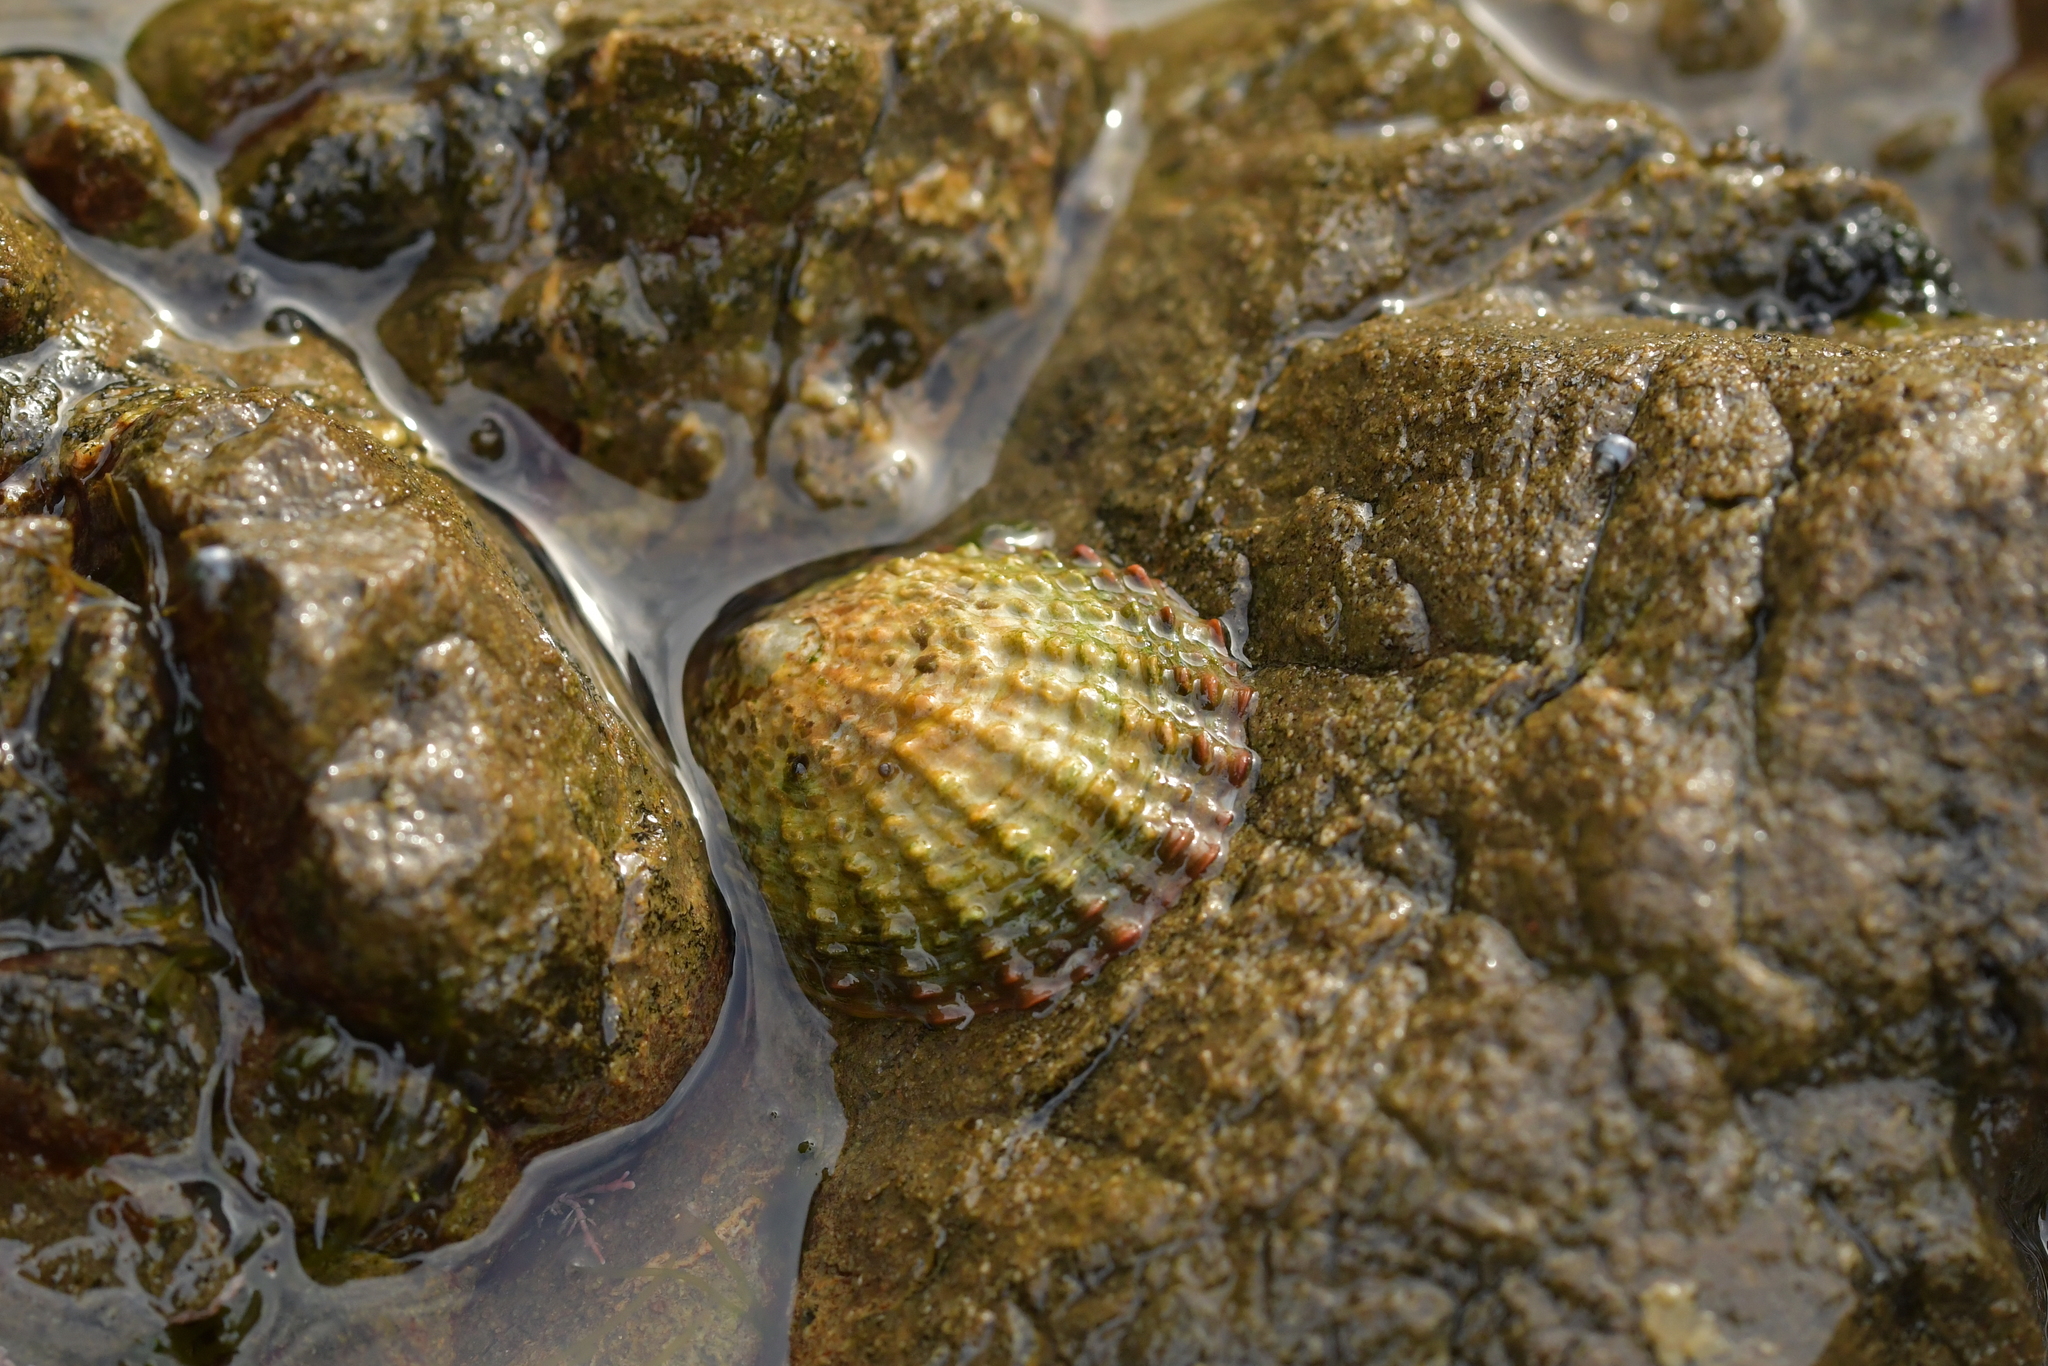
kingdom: Animalia
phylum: Mollusca
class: Gastropoda
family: Nacellidae
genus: Cellana
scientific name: Cellana denticulata
